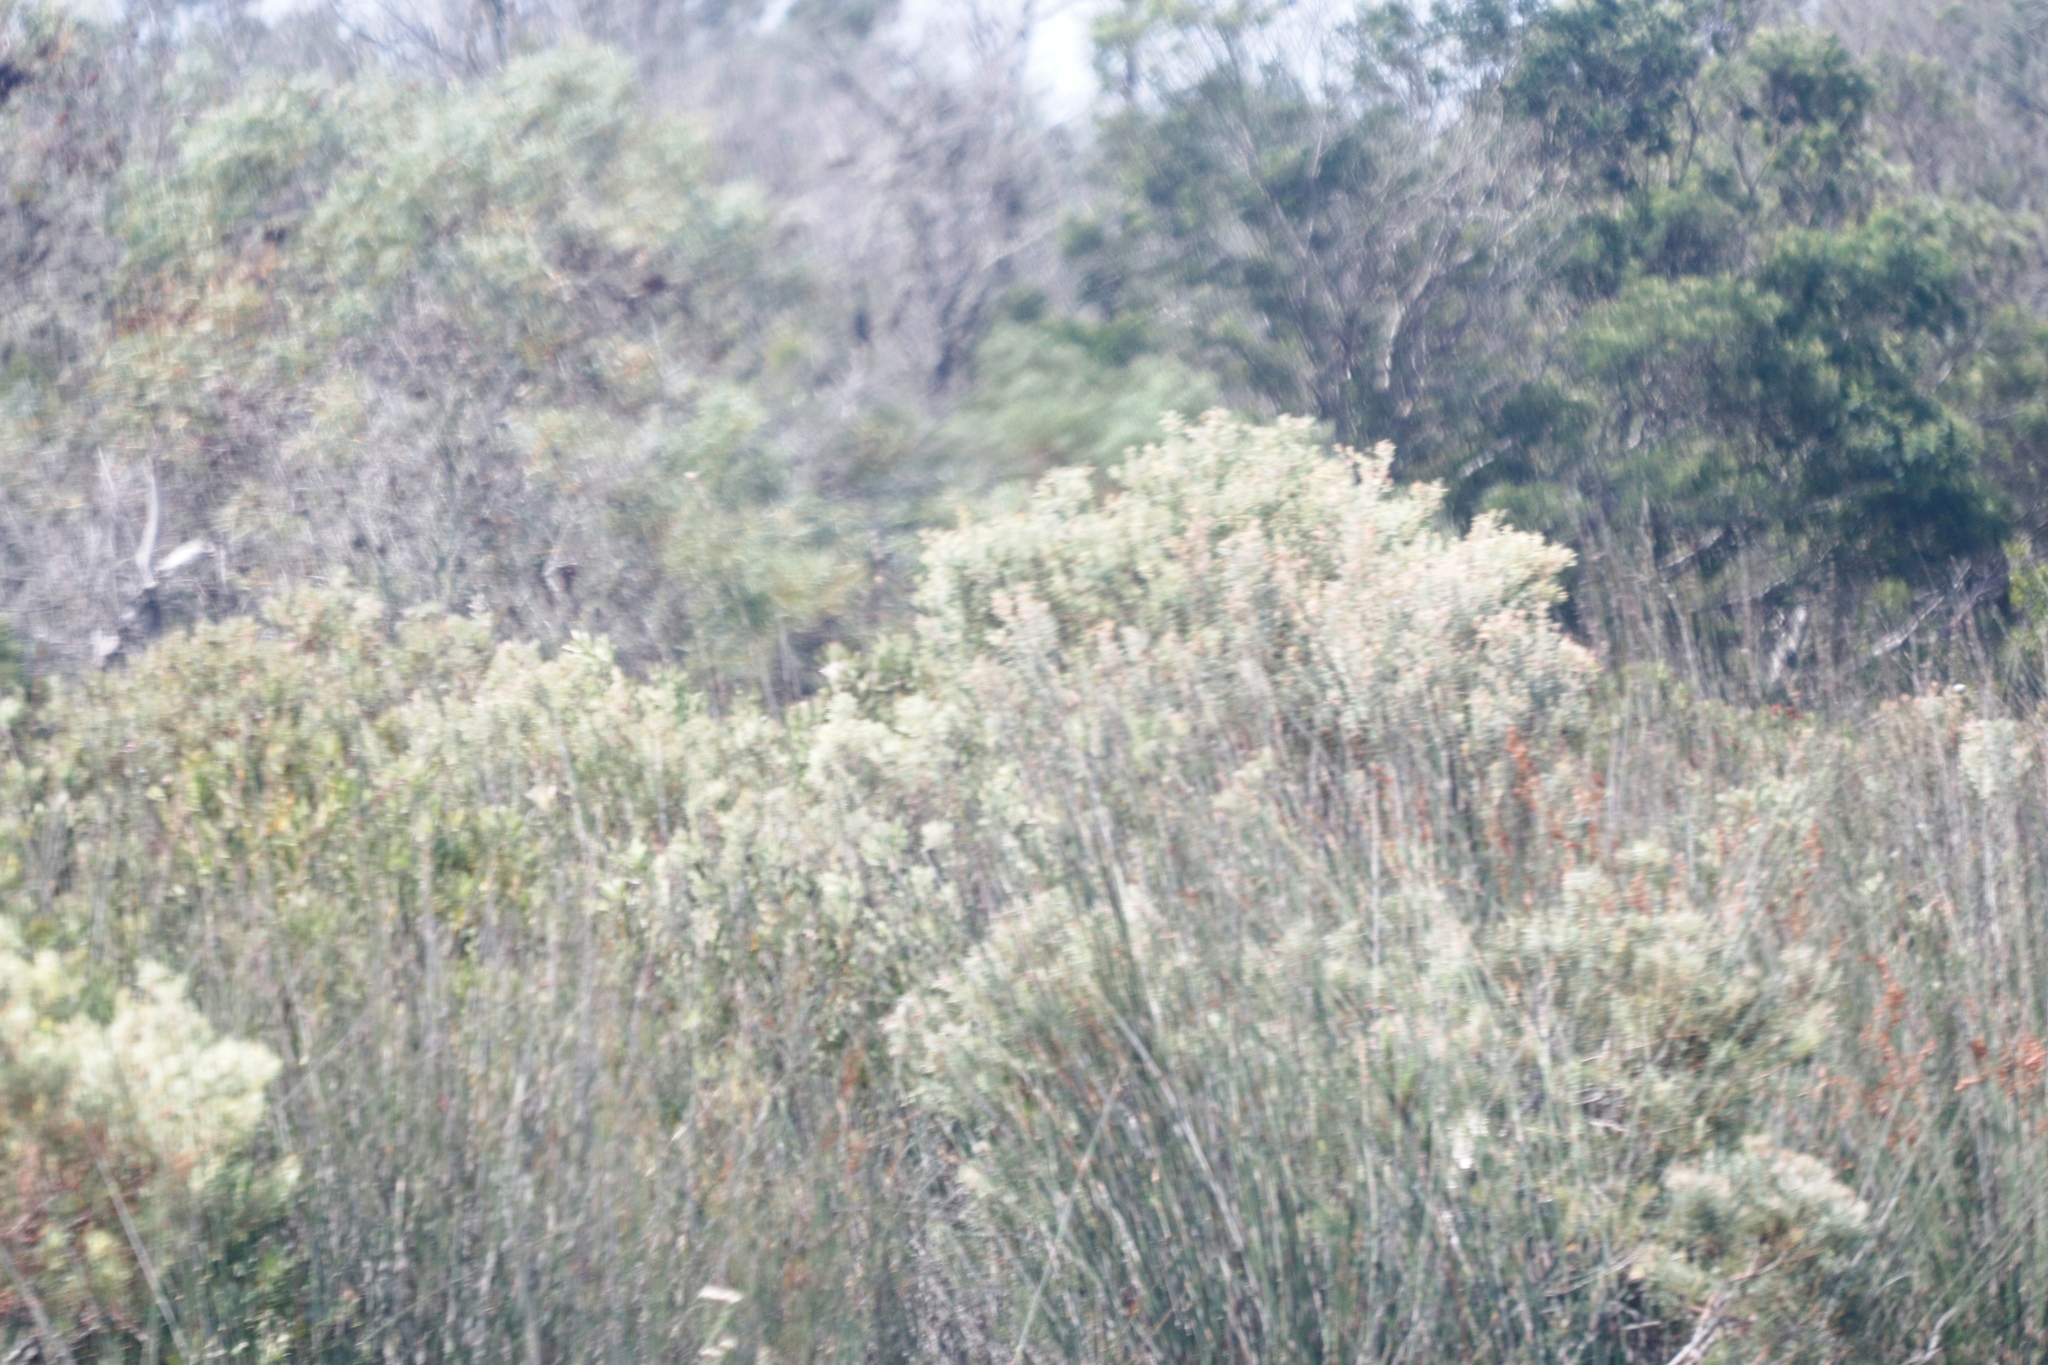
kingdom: Plantae
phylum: Tracheophyta
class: Magnoliopsida
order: Proteales
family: Proteaceae
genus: Leucadendron
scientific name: Leucadendron galpinii
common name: Hairless conebush
